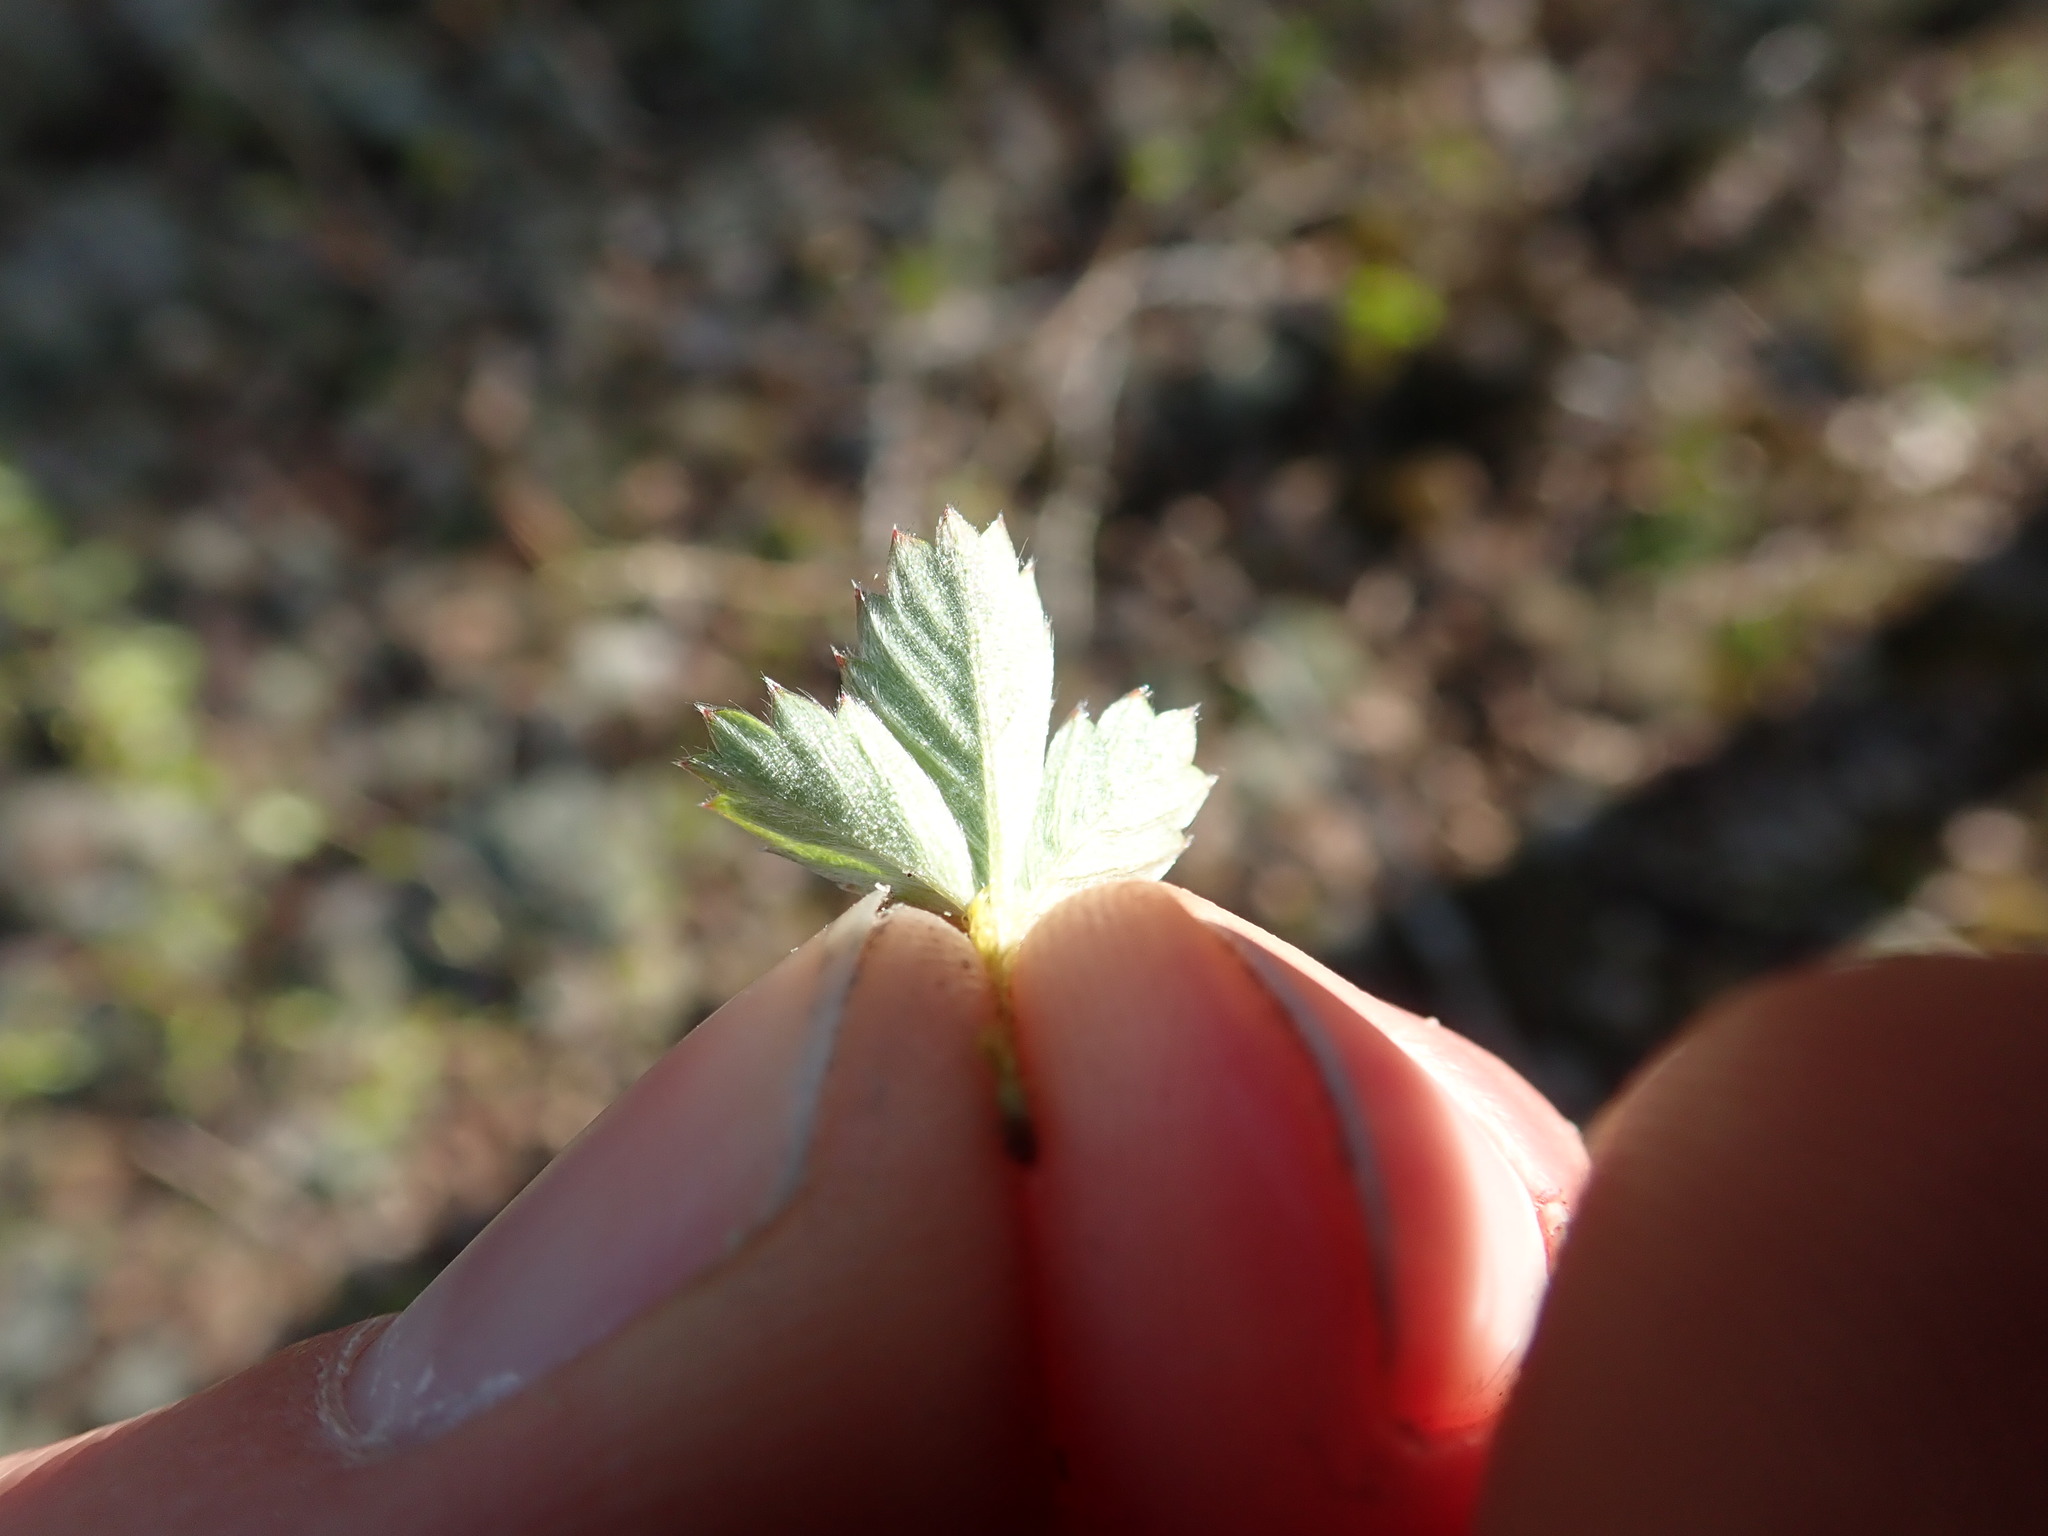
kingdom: Plantae
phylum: Tracheophyta
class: Magnoliopsida
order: Rosales
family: Rosaceae
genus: Potentilla
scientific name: Potentilla
